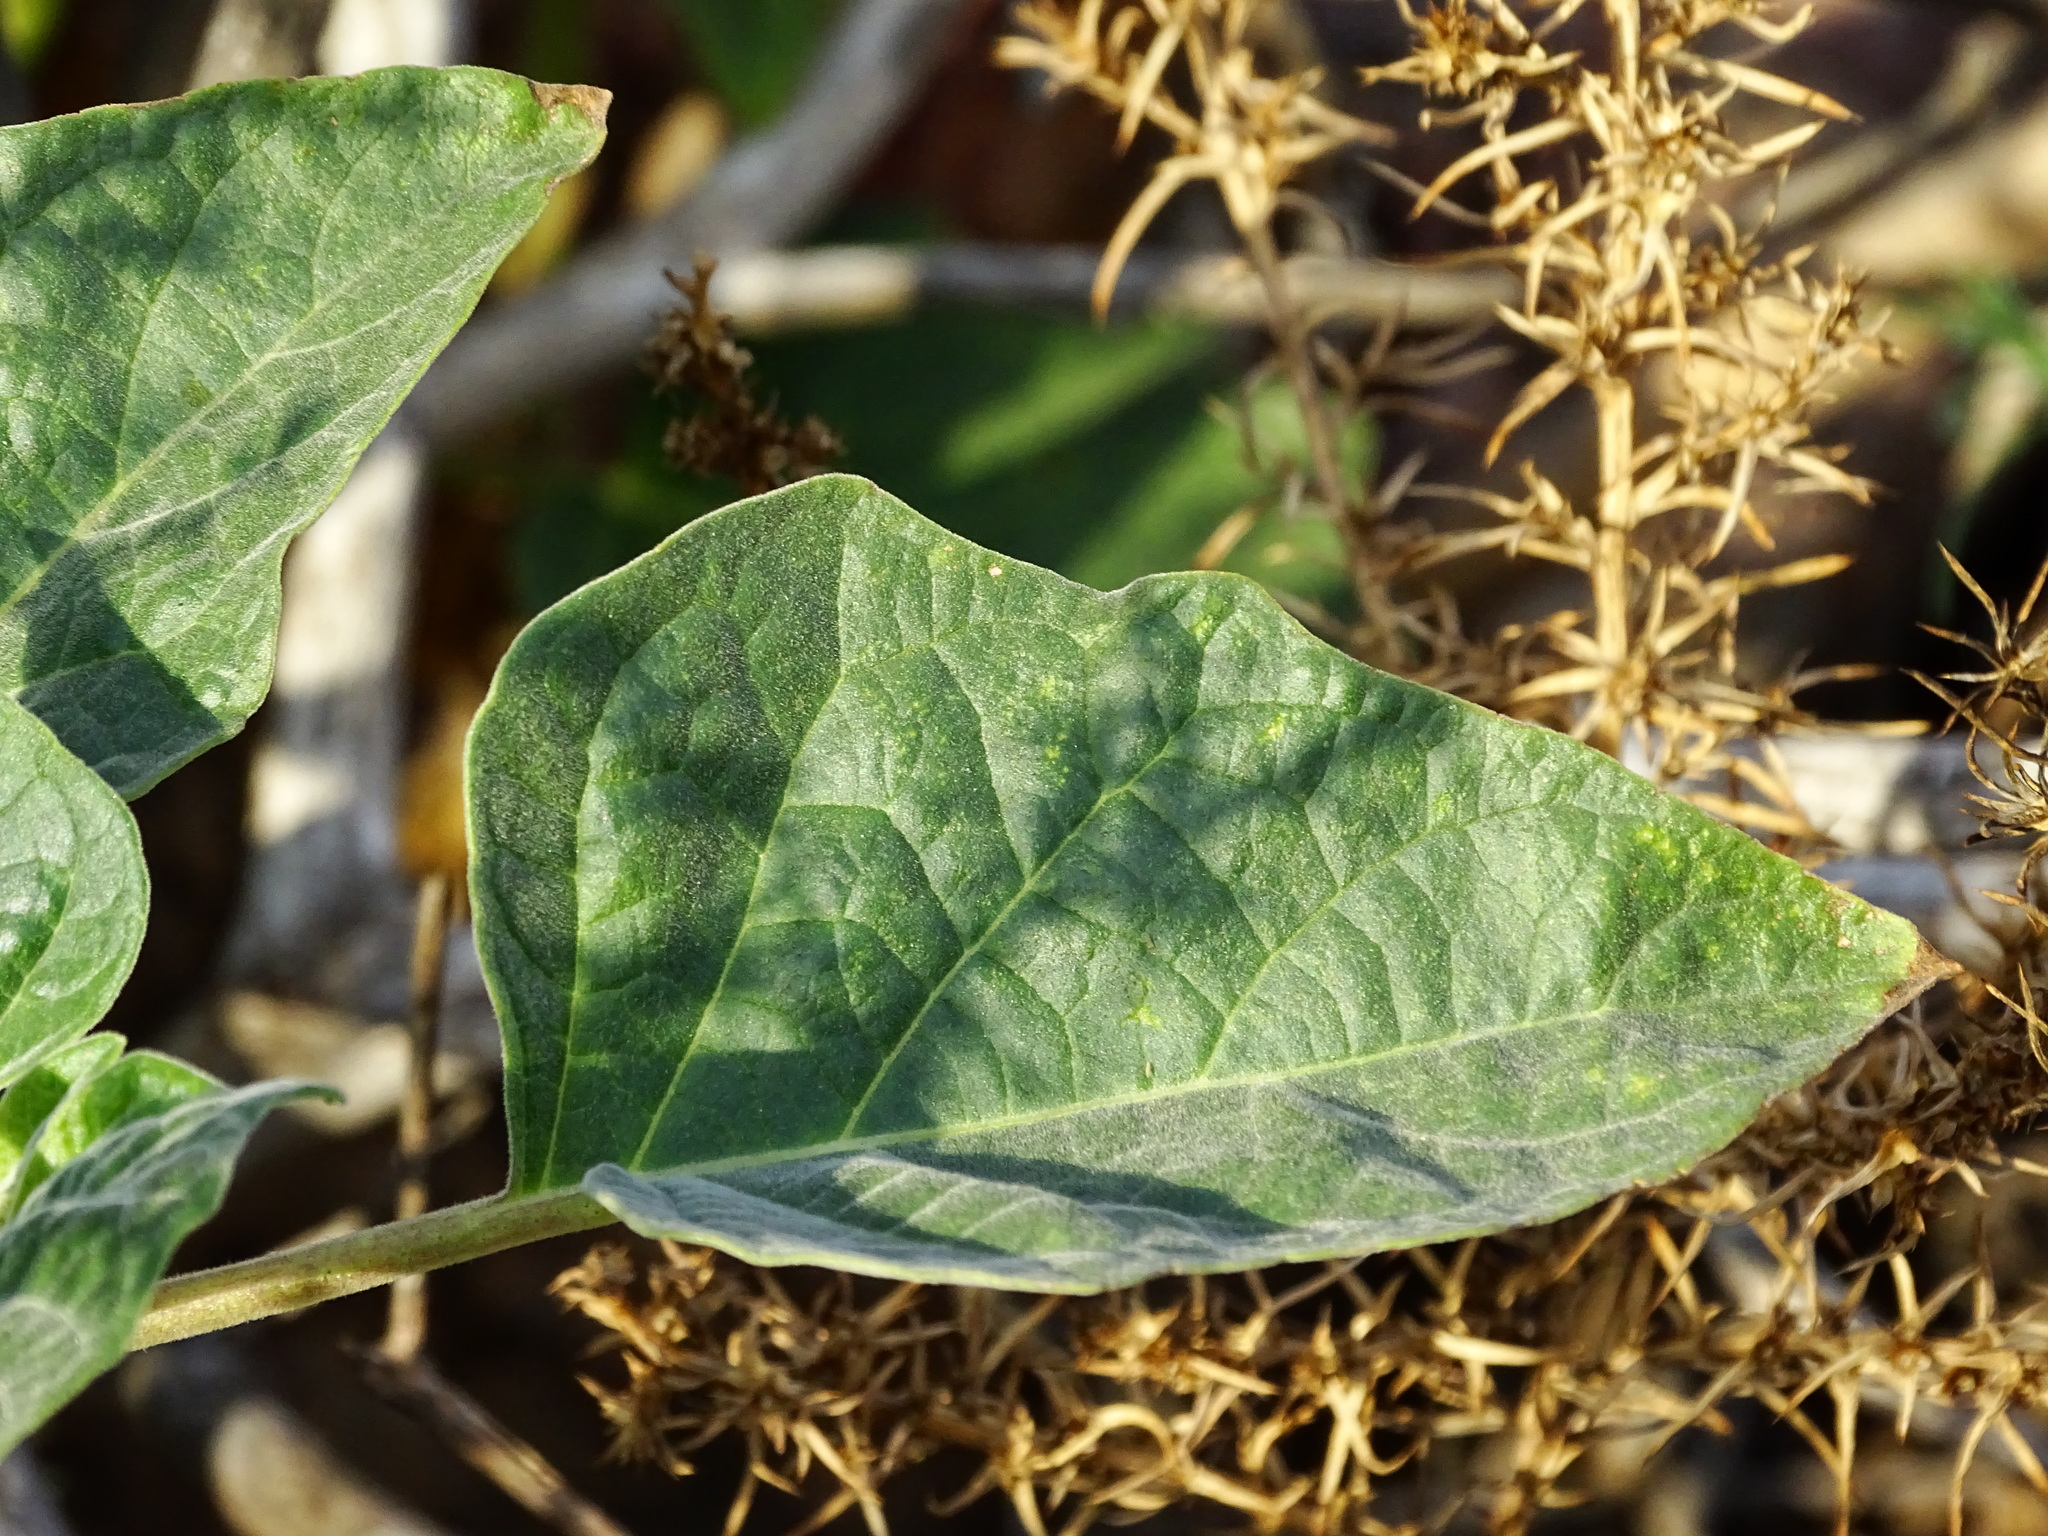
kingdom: Plantae
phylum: Tracheophyta
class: Magnoliopsida
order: Solanales
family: Solanaceae
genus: Datura
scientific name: Datura wrightii
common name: Sacred thorn-apple
